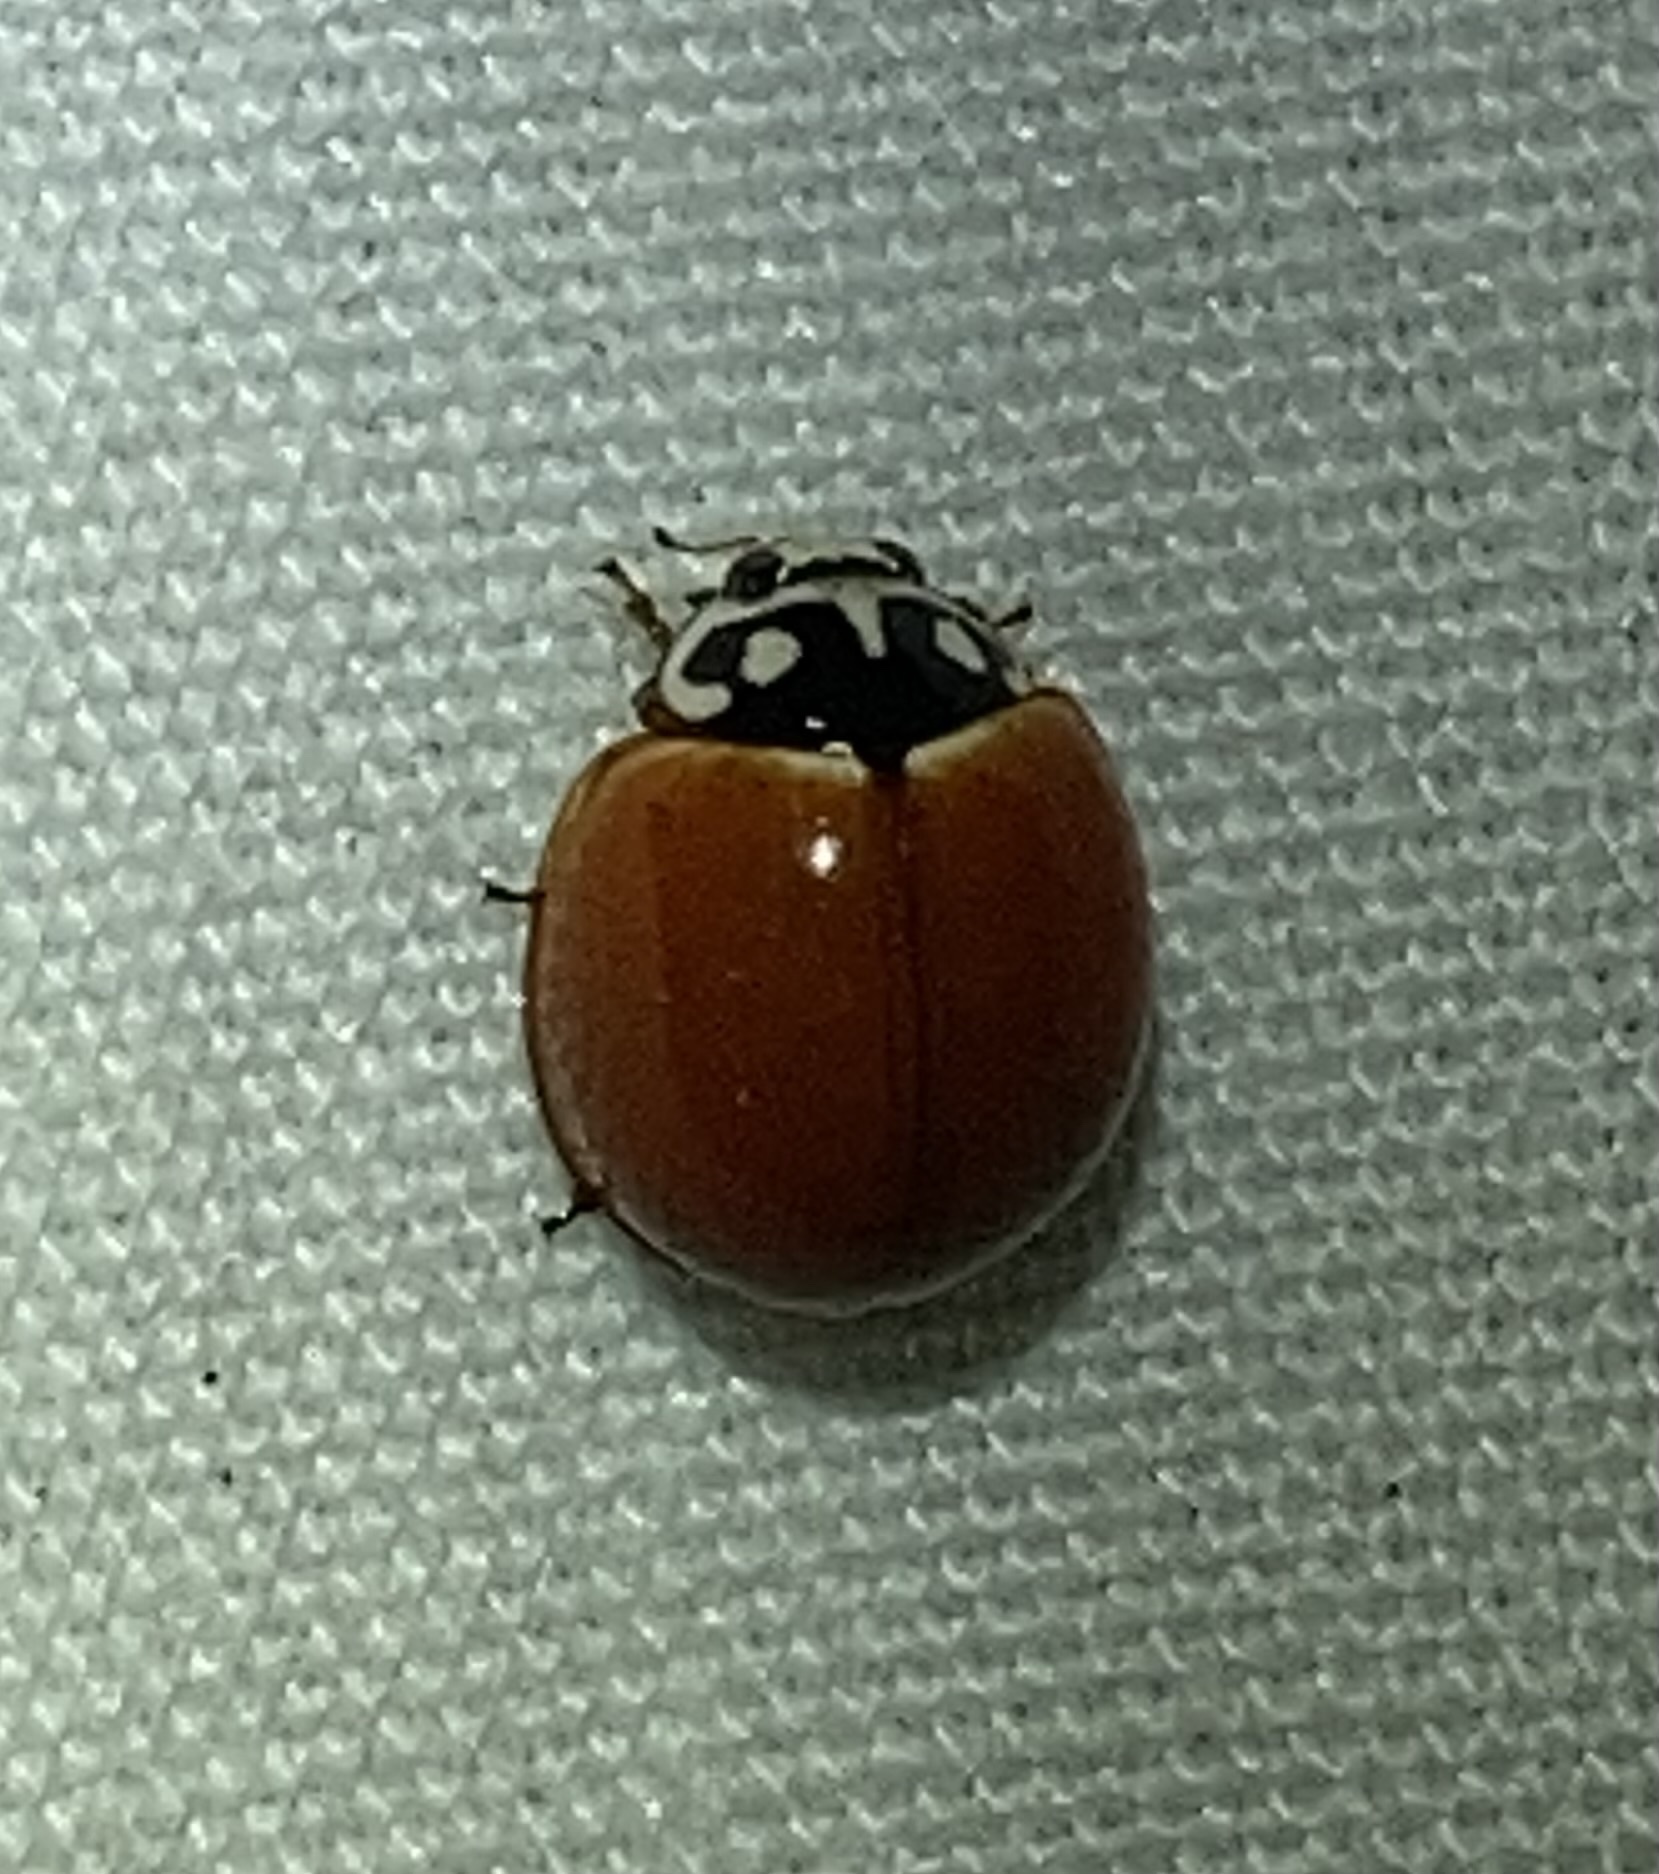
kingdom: Animalia
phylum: Arthropoda
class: Insecta
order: Coleoptera
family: Coccinellidae
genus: Cycloneda
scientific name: Cycloneda sanguinea
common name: Ladybird beetle
